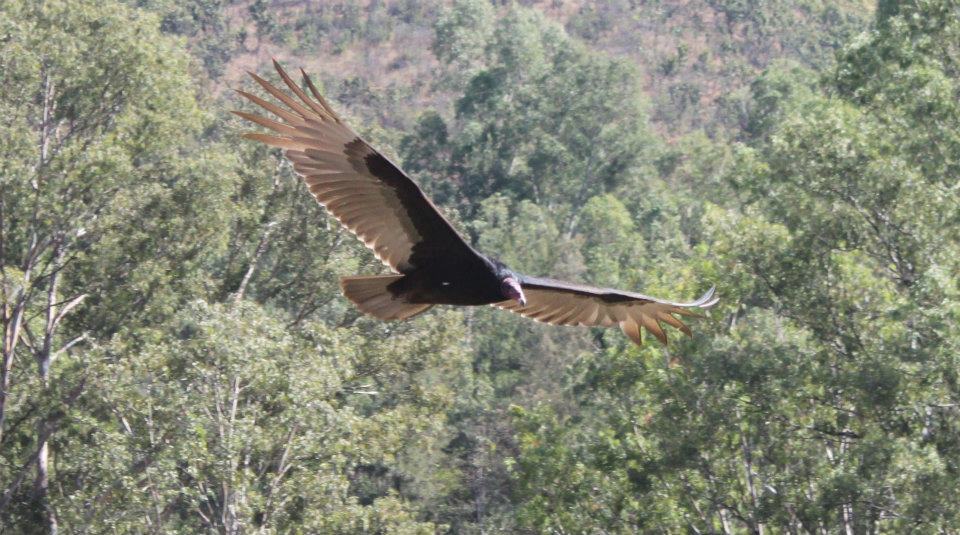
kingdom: Animalia
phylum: Chordata
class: Aves
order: Accipitriformes
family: Cathartidae
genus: Cathartes
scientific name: Cathartes aura
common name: Turkey vulture
